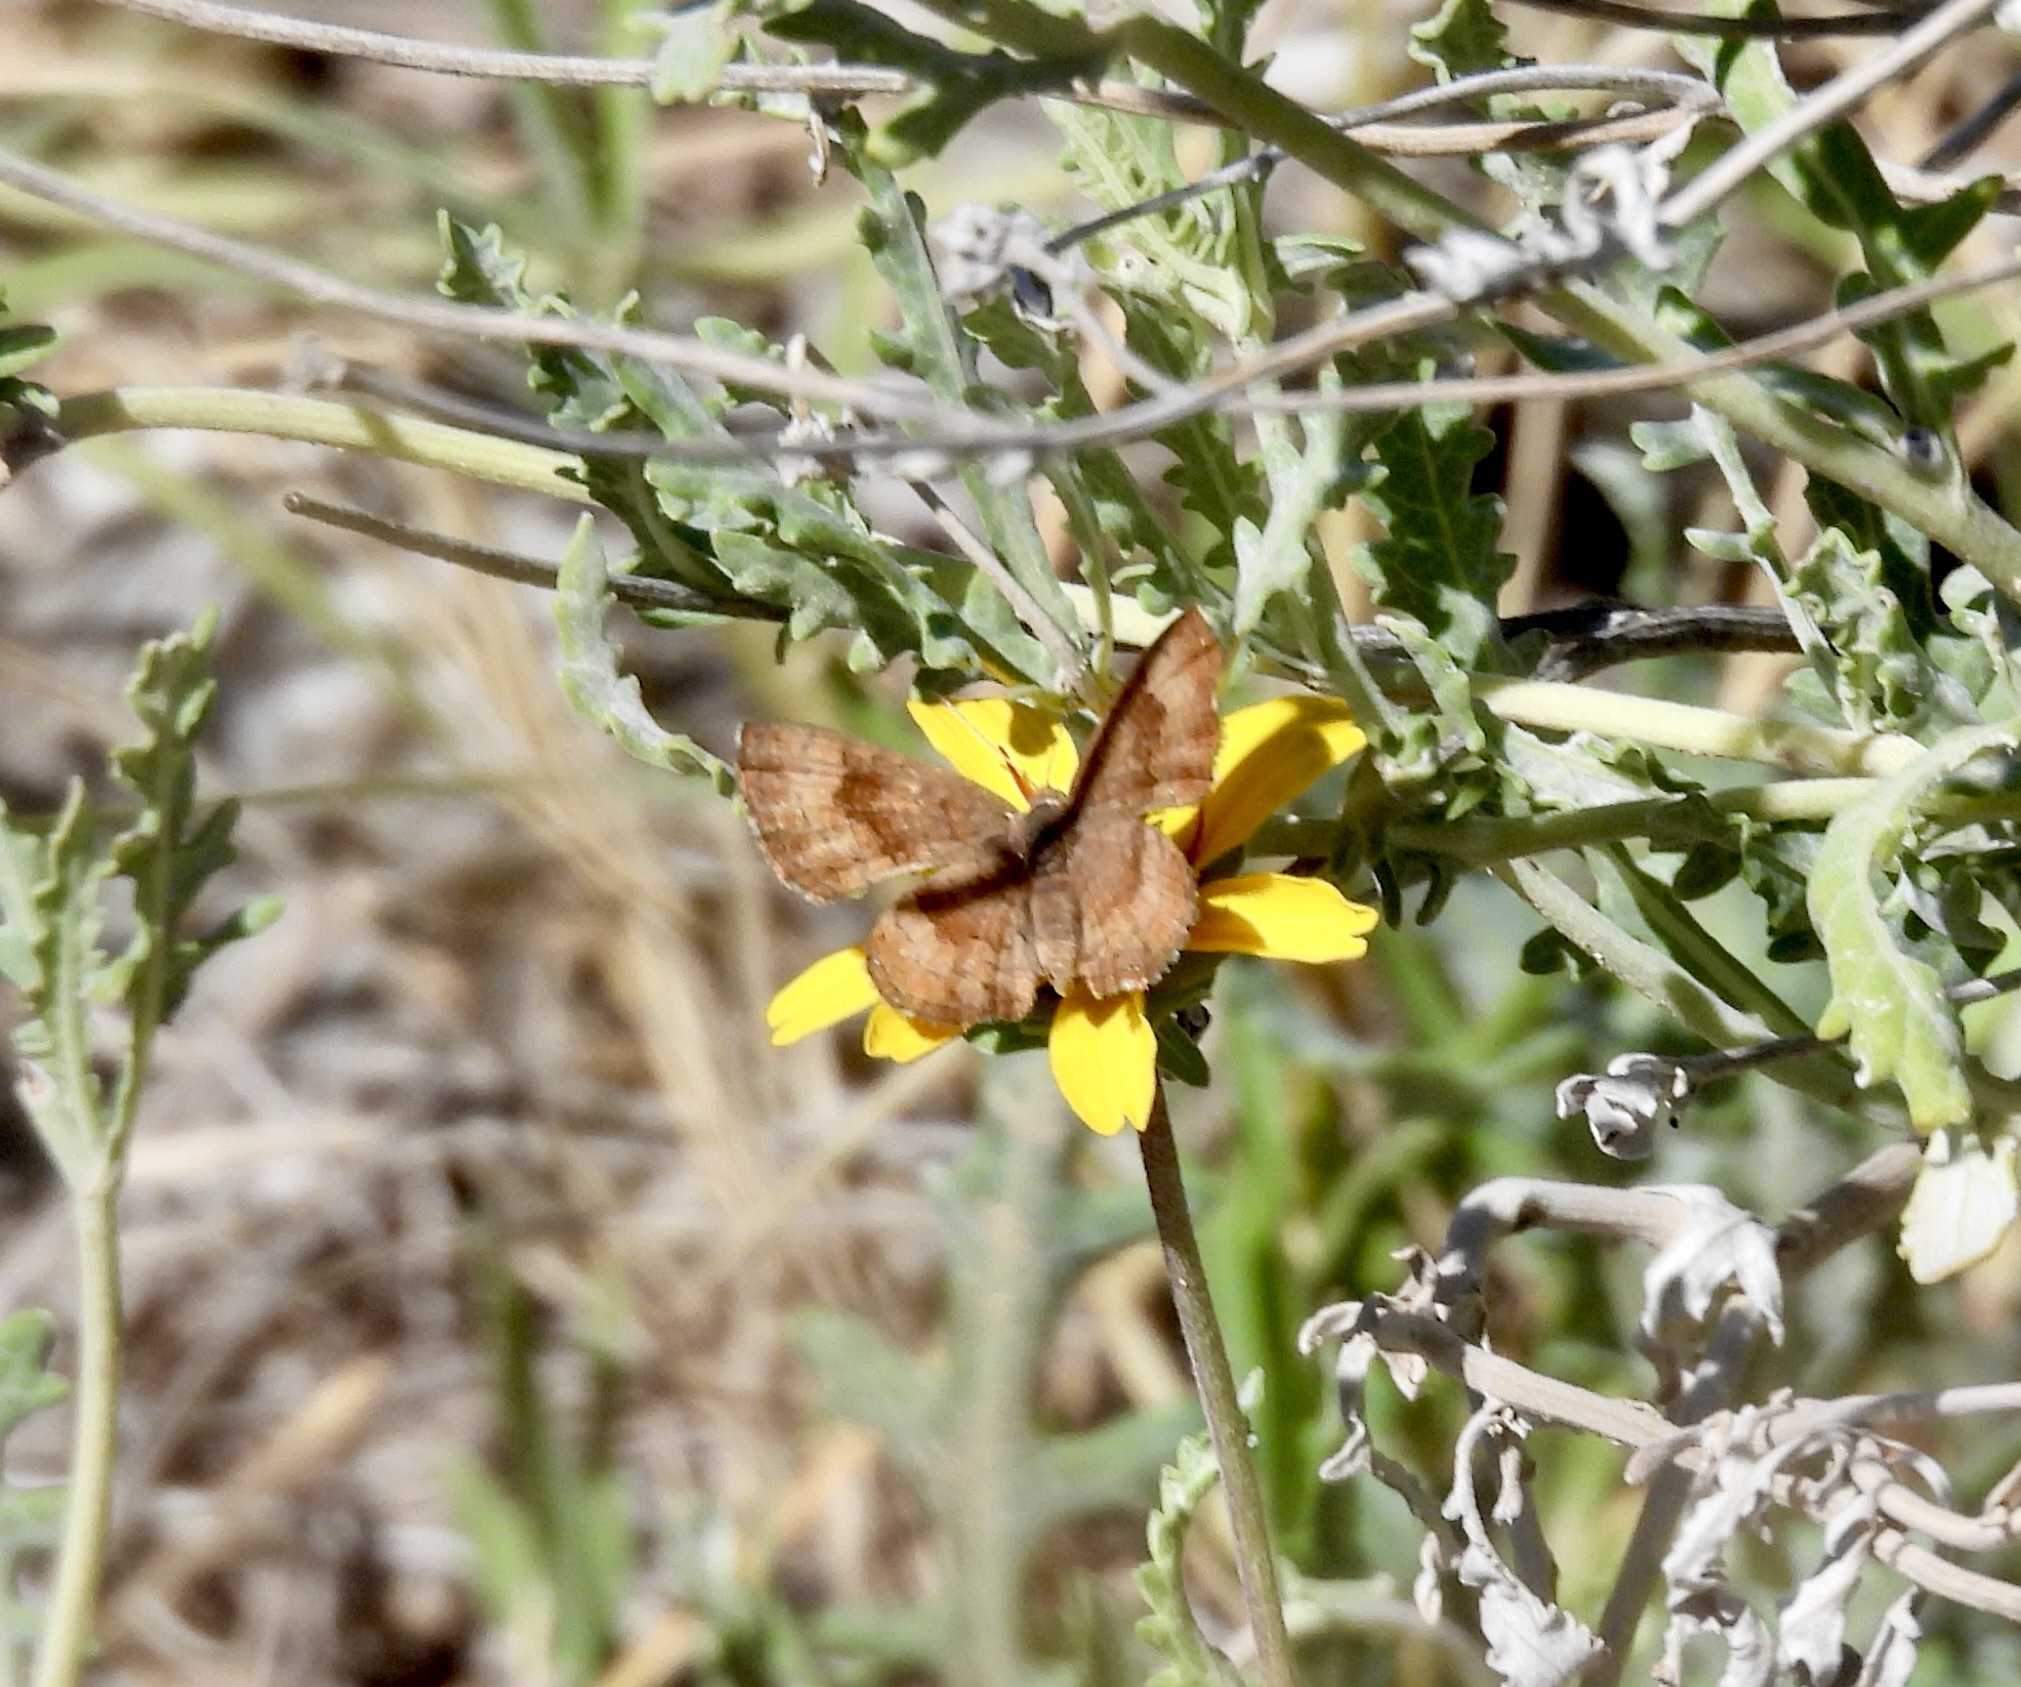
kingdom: Animalia
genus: Calephelis
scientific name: Calephelis nemesis
